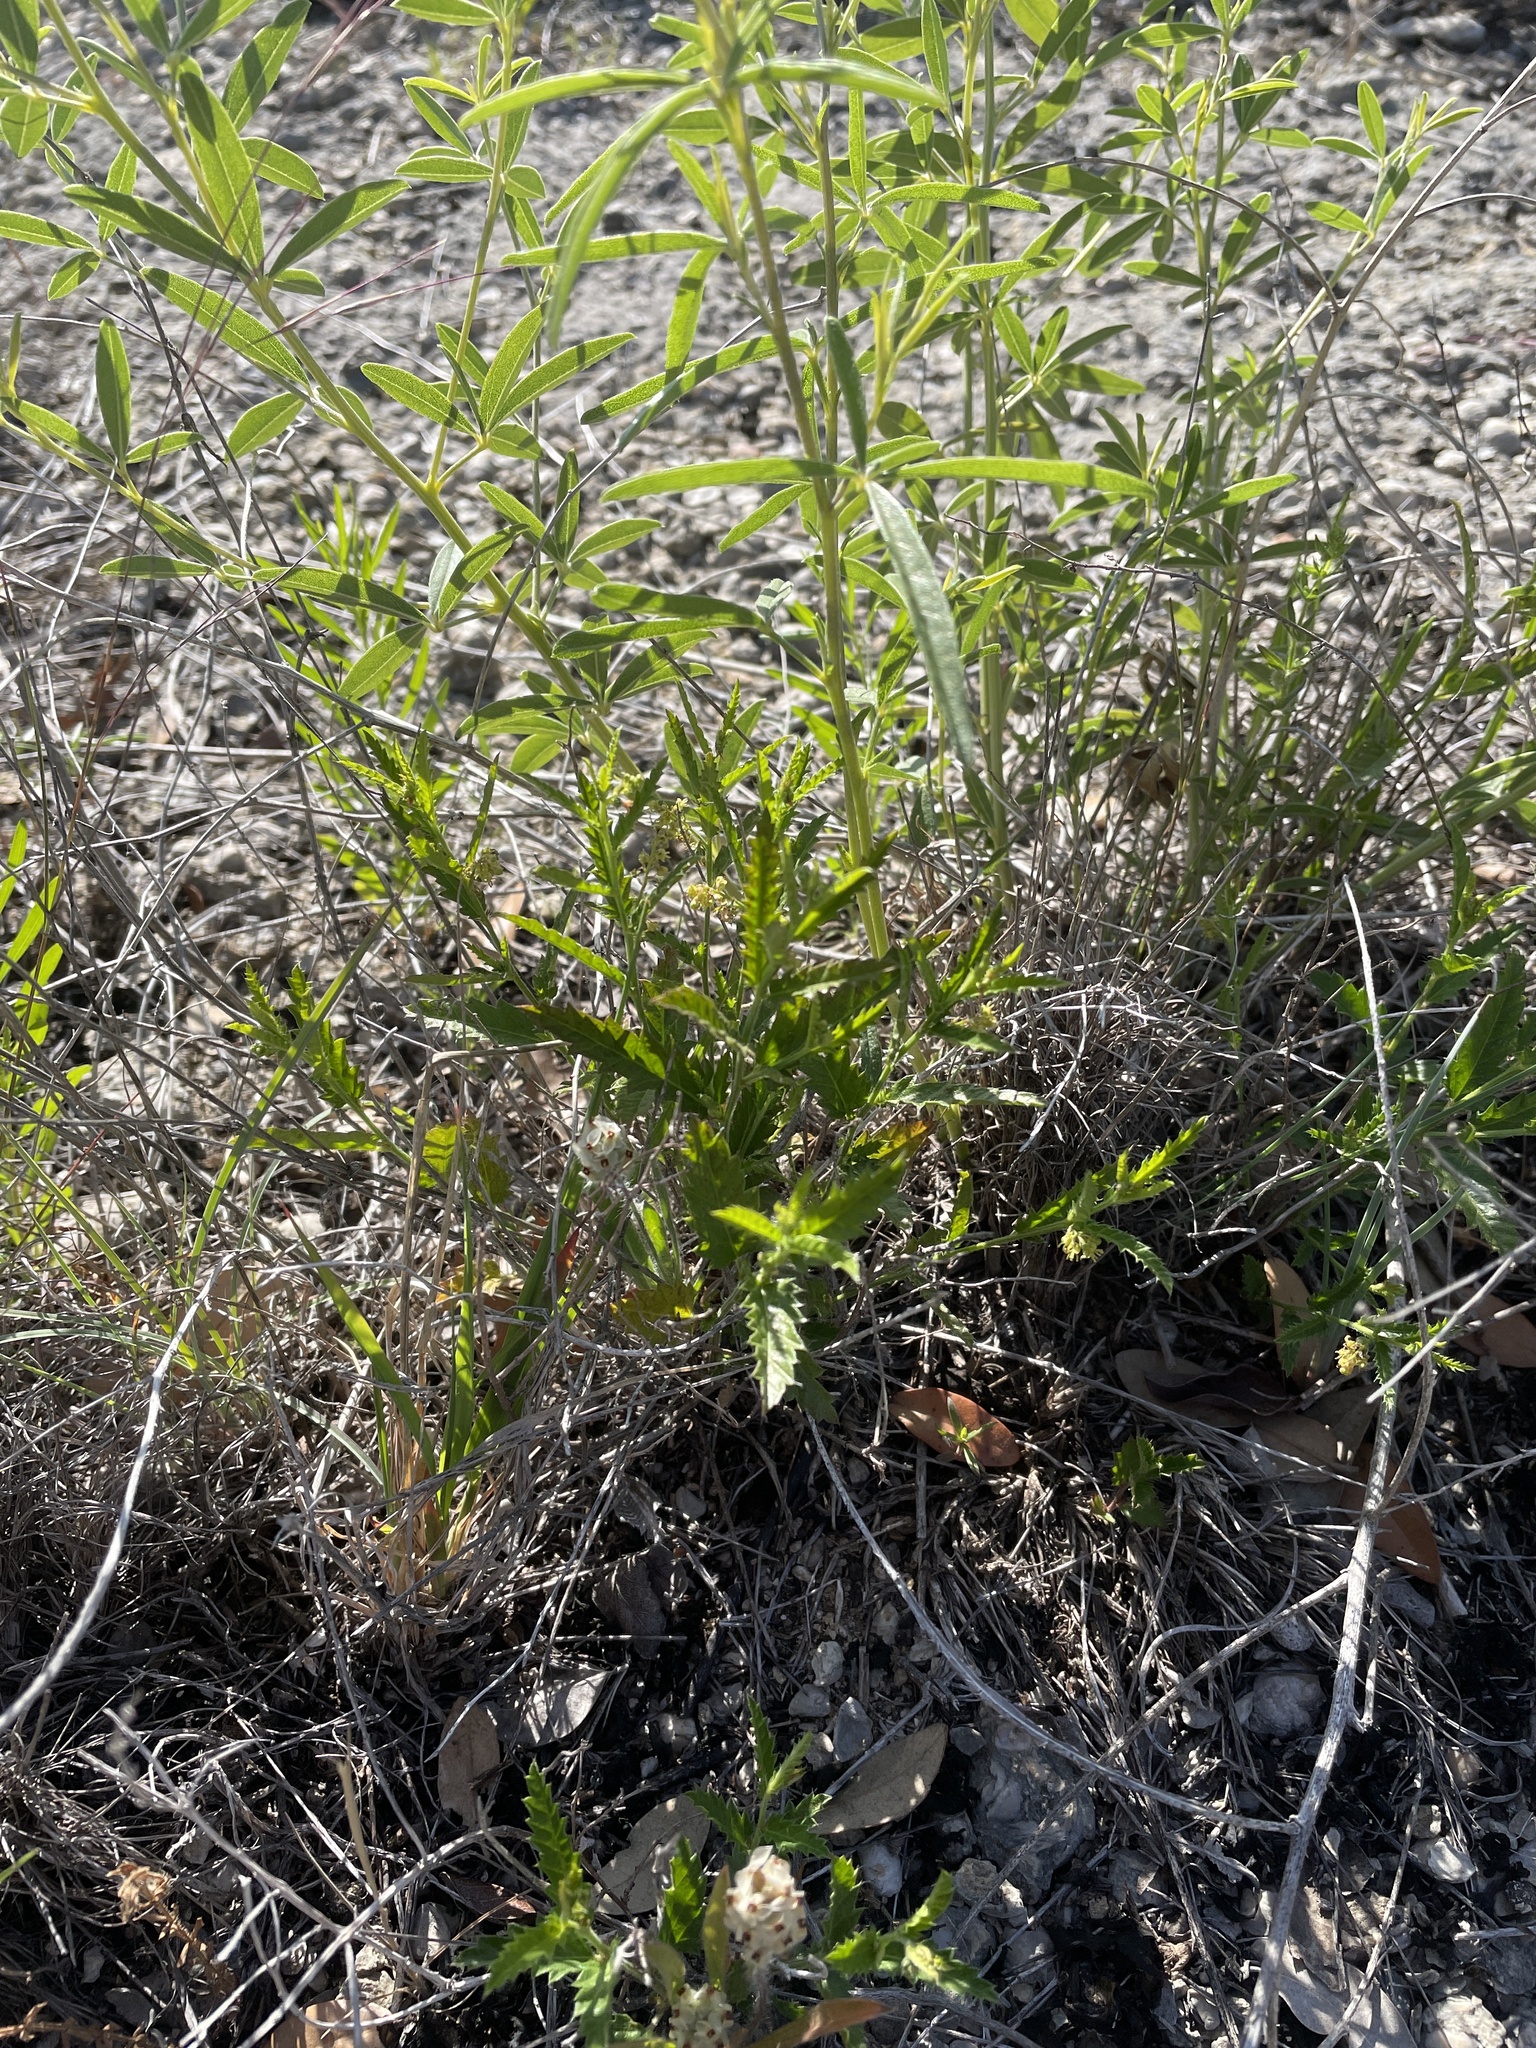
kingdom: Plantae
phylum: Tracheophyta
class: Magnoliopsida
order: Malpighiales
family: Euphorbiaceae
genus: Tragia
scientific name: Tragia ramosa
